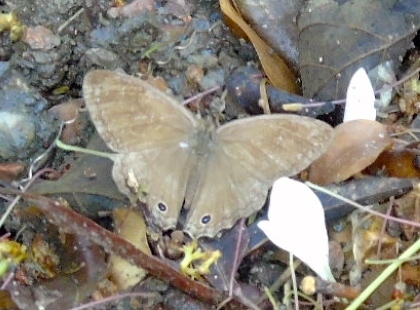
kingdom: Animalia
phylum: Arthropoda
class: Insecta
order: Lepidoptera
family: Nymphalidae
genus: Vareuptychia
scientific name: Vareuptychia similis
